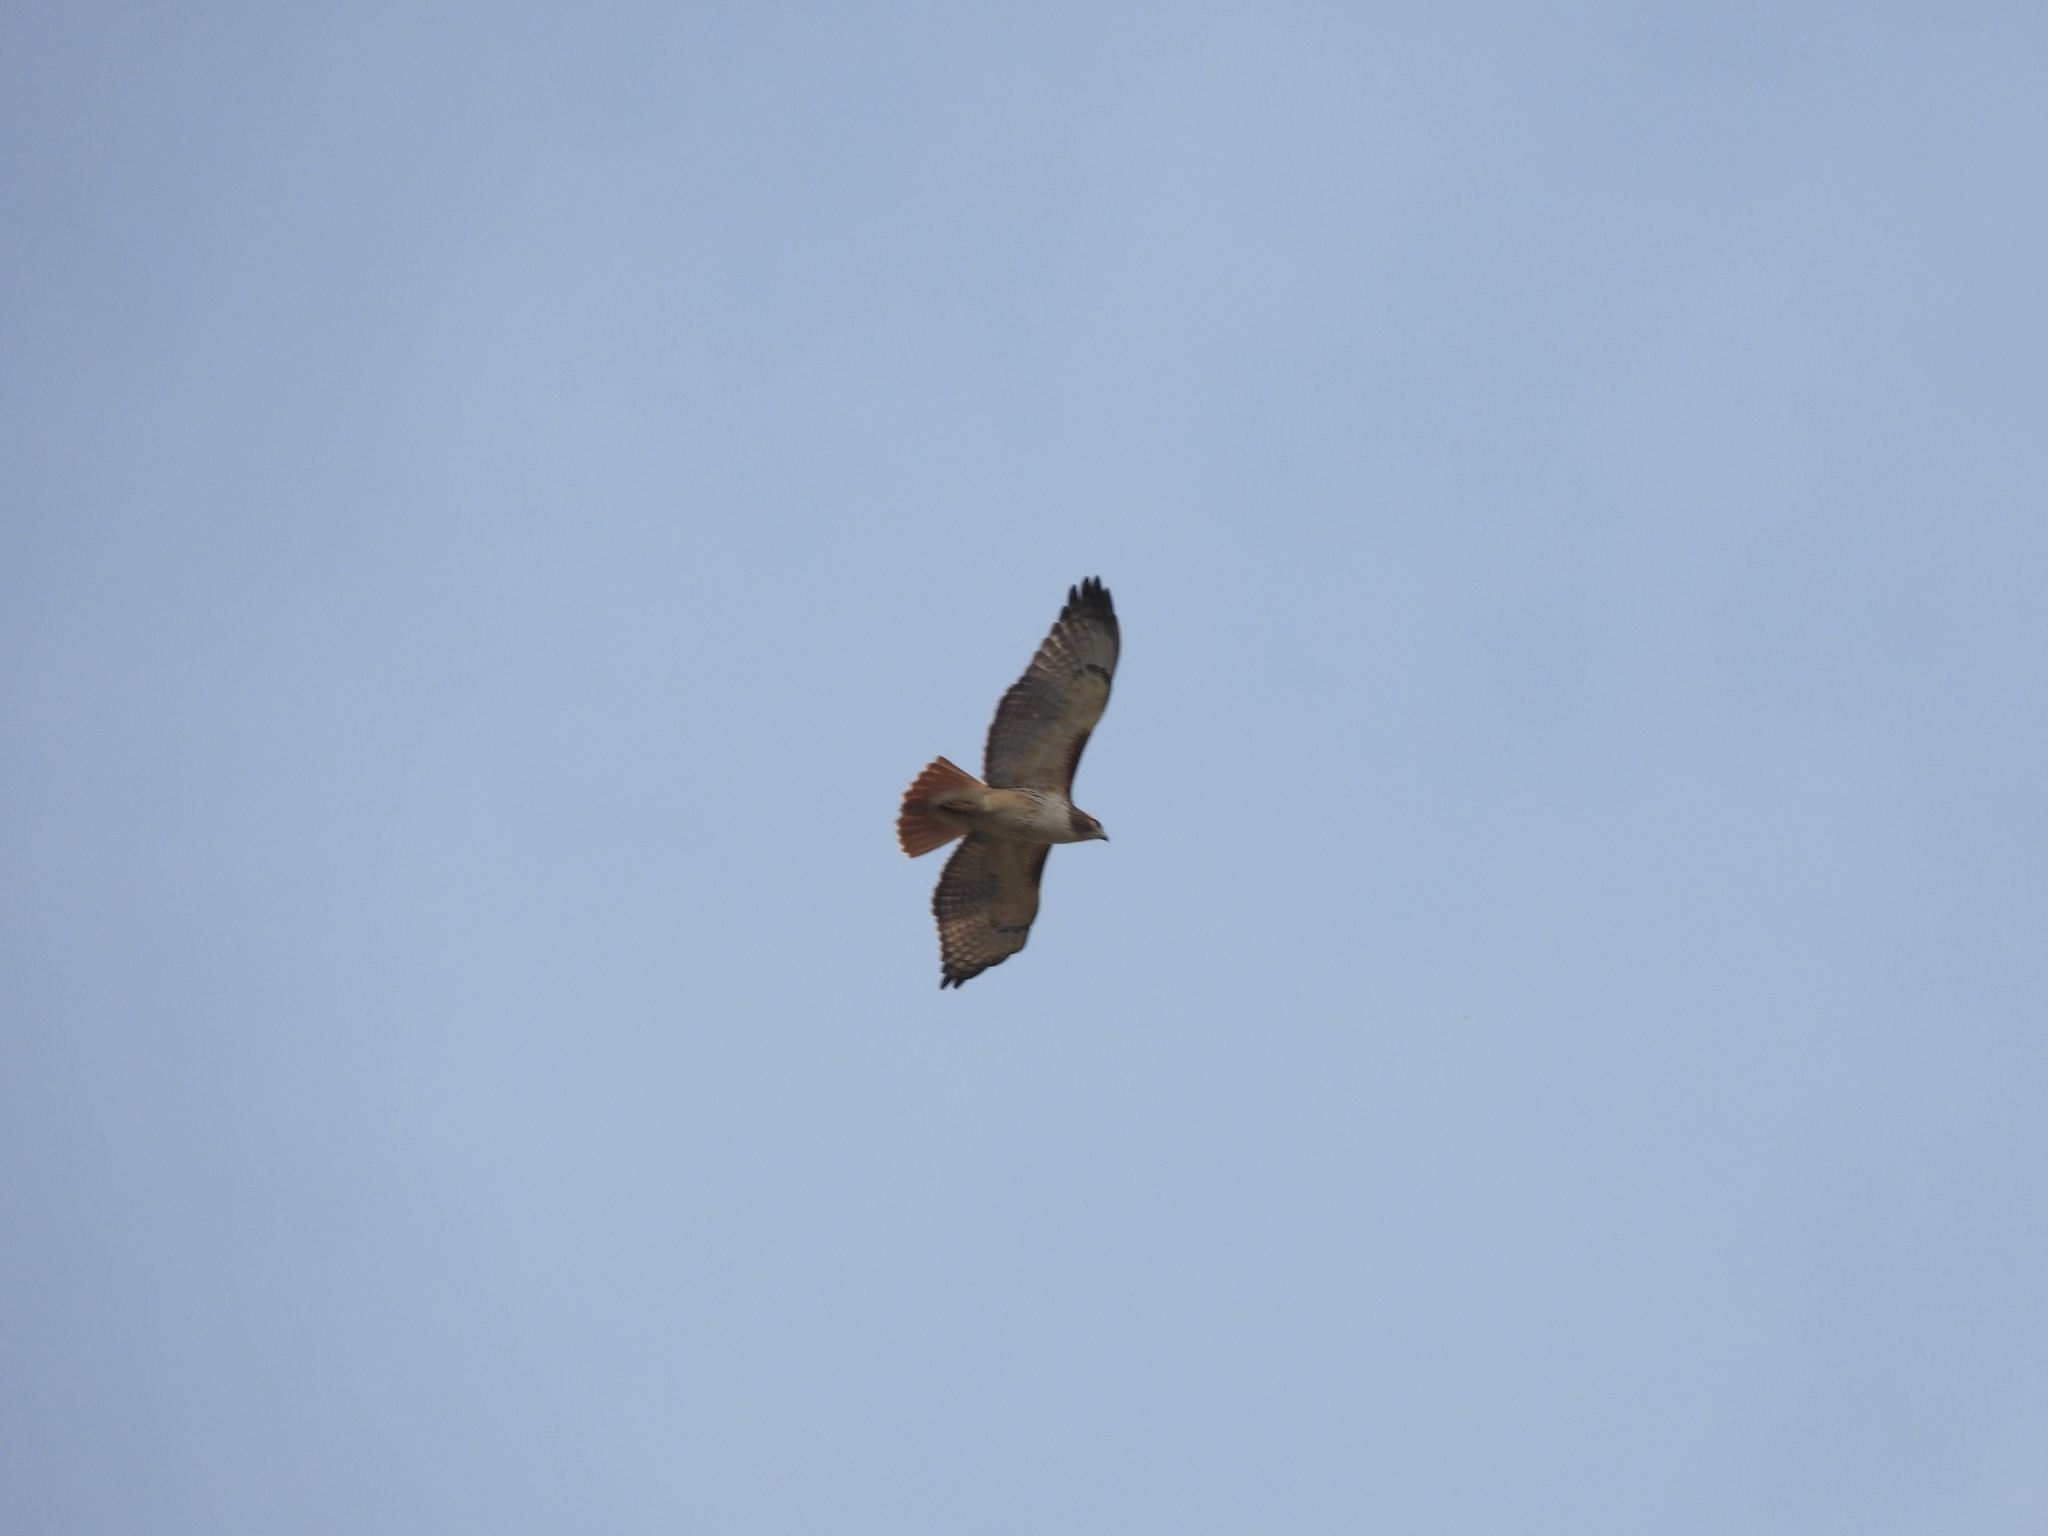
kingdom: Animalia
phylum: Chordata
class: Aves
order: Accipitriformes
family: Accipitridae
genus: Buteo
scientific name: Buteo jamaicensis
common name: Red-tailed hawk
